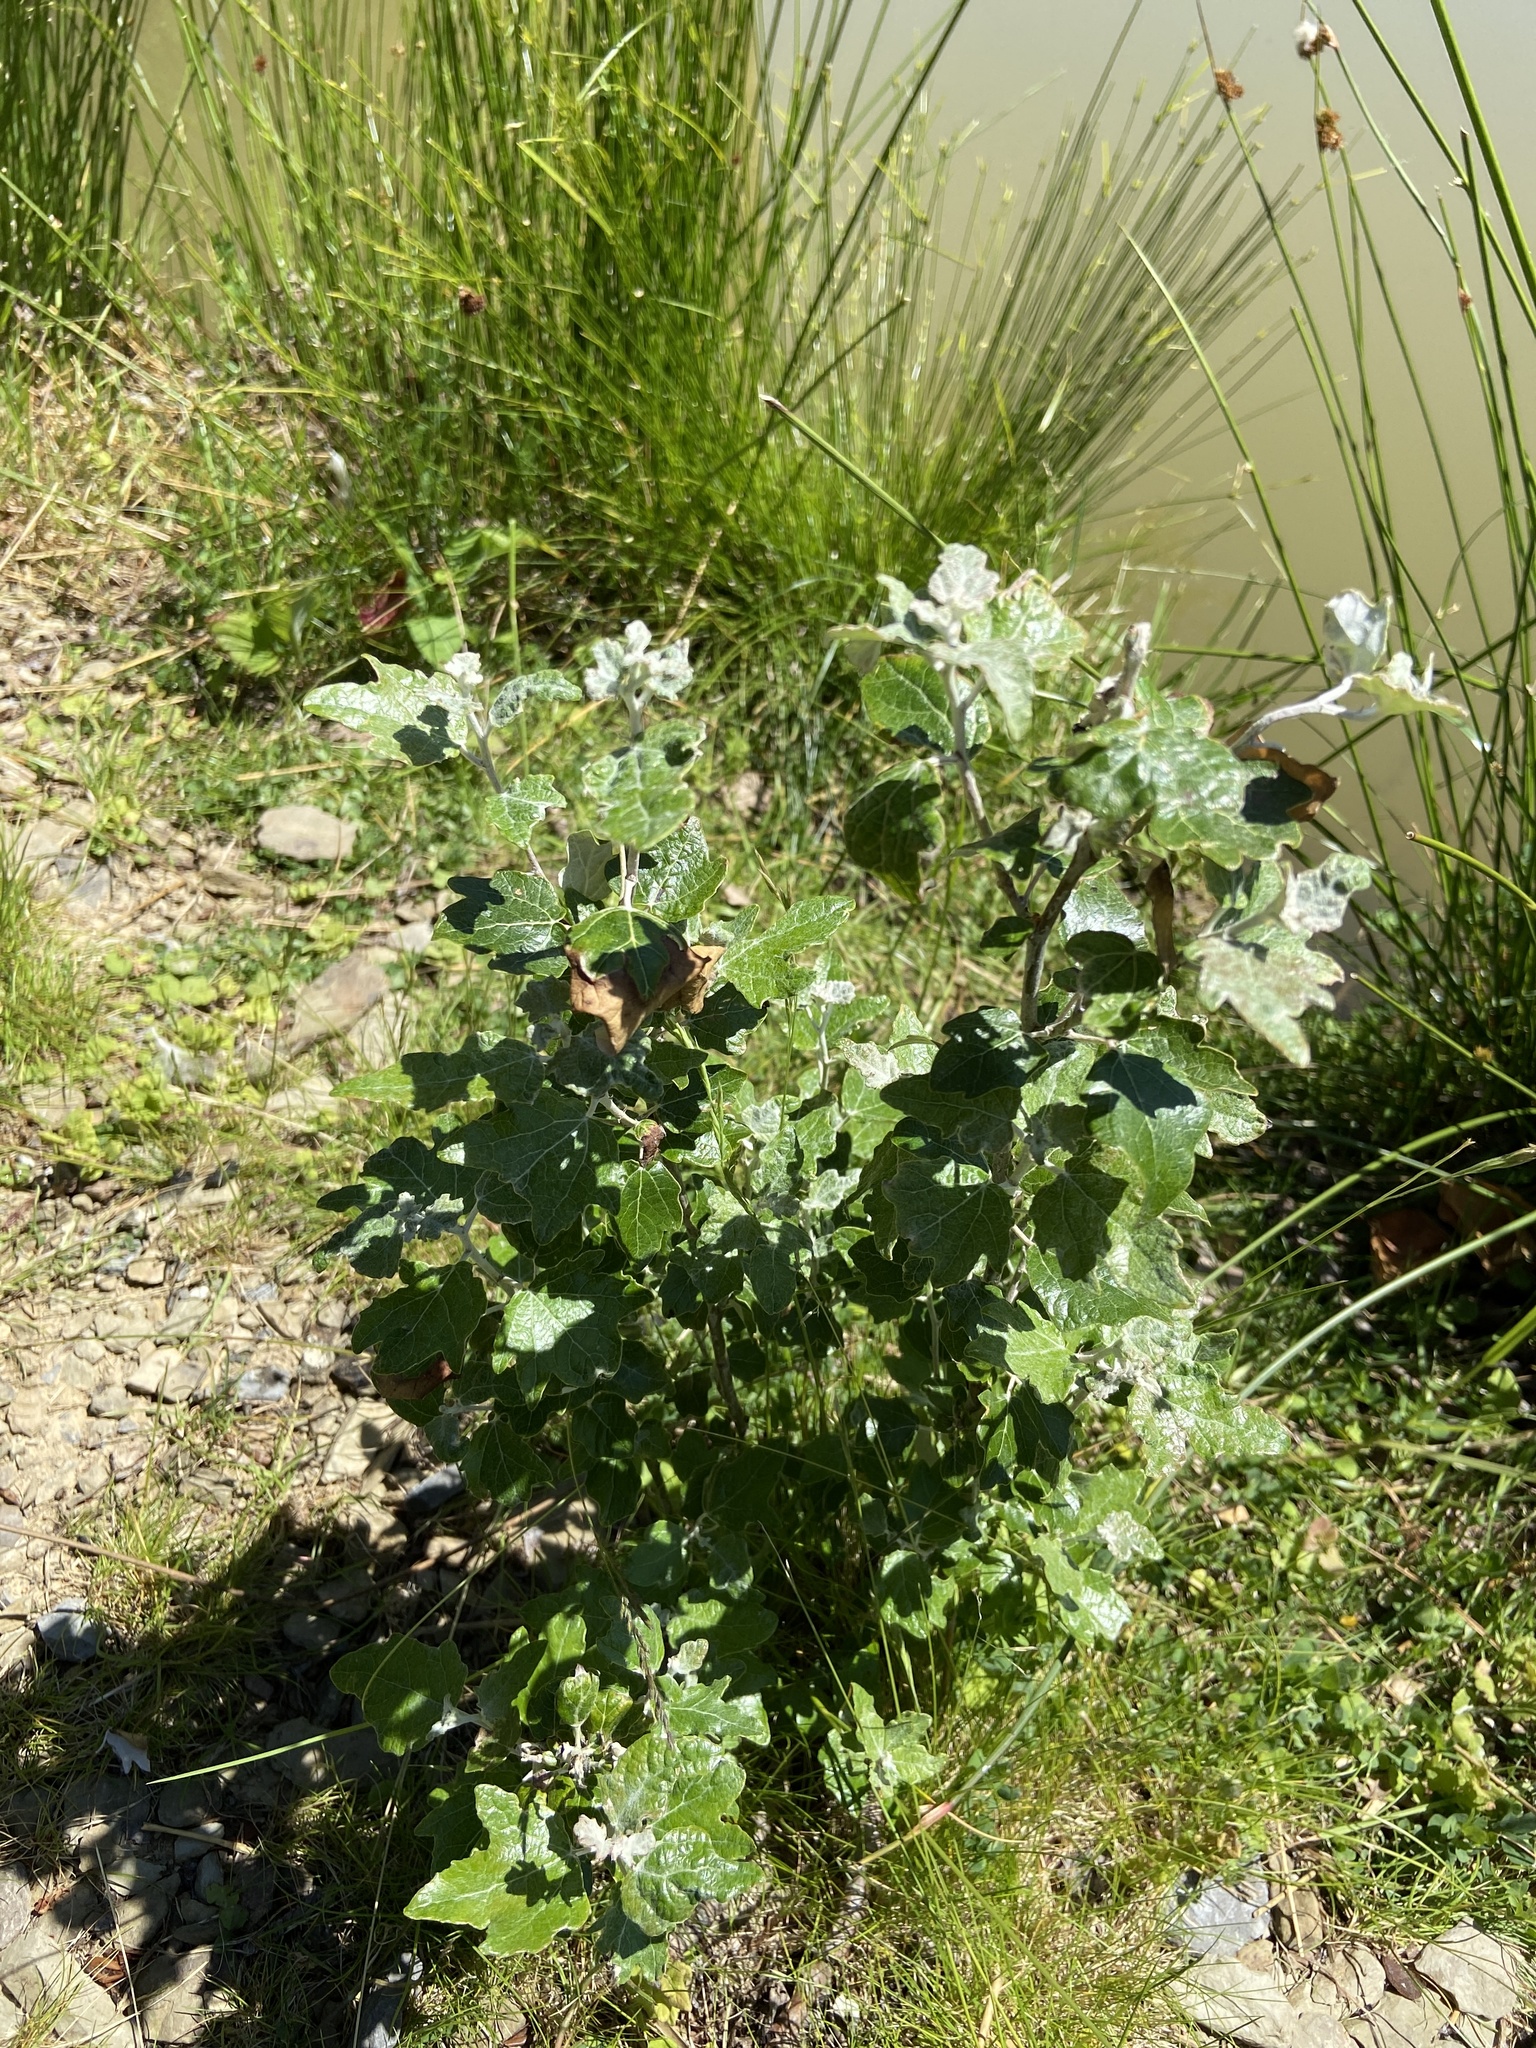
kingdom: Plantae
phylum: Tracheophyta
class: Magnoliopsida
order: Malpighiales
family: Salicaceae
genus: Populus
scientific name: Populus alba
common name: White poplar
